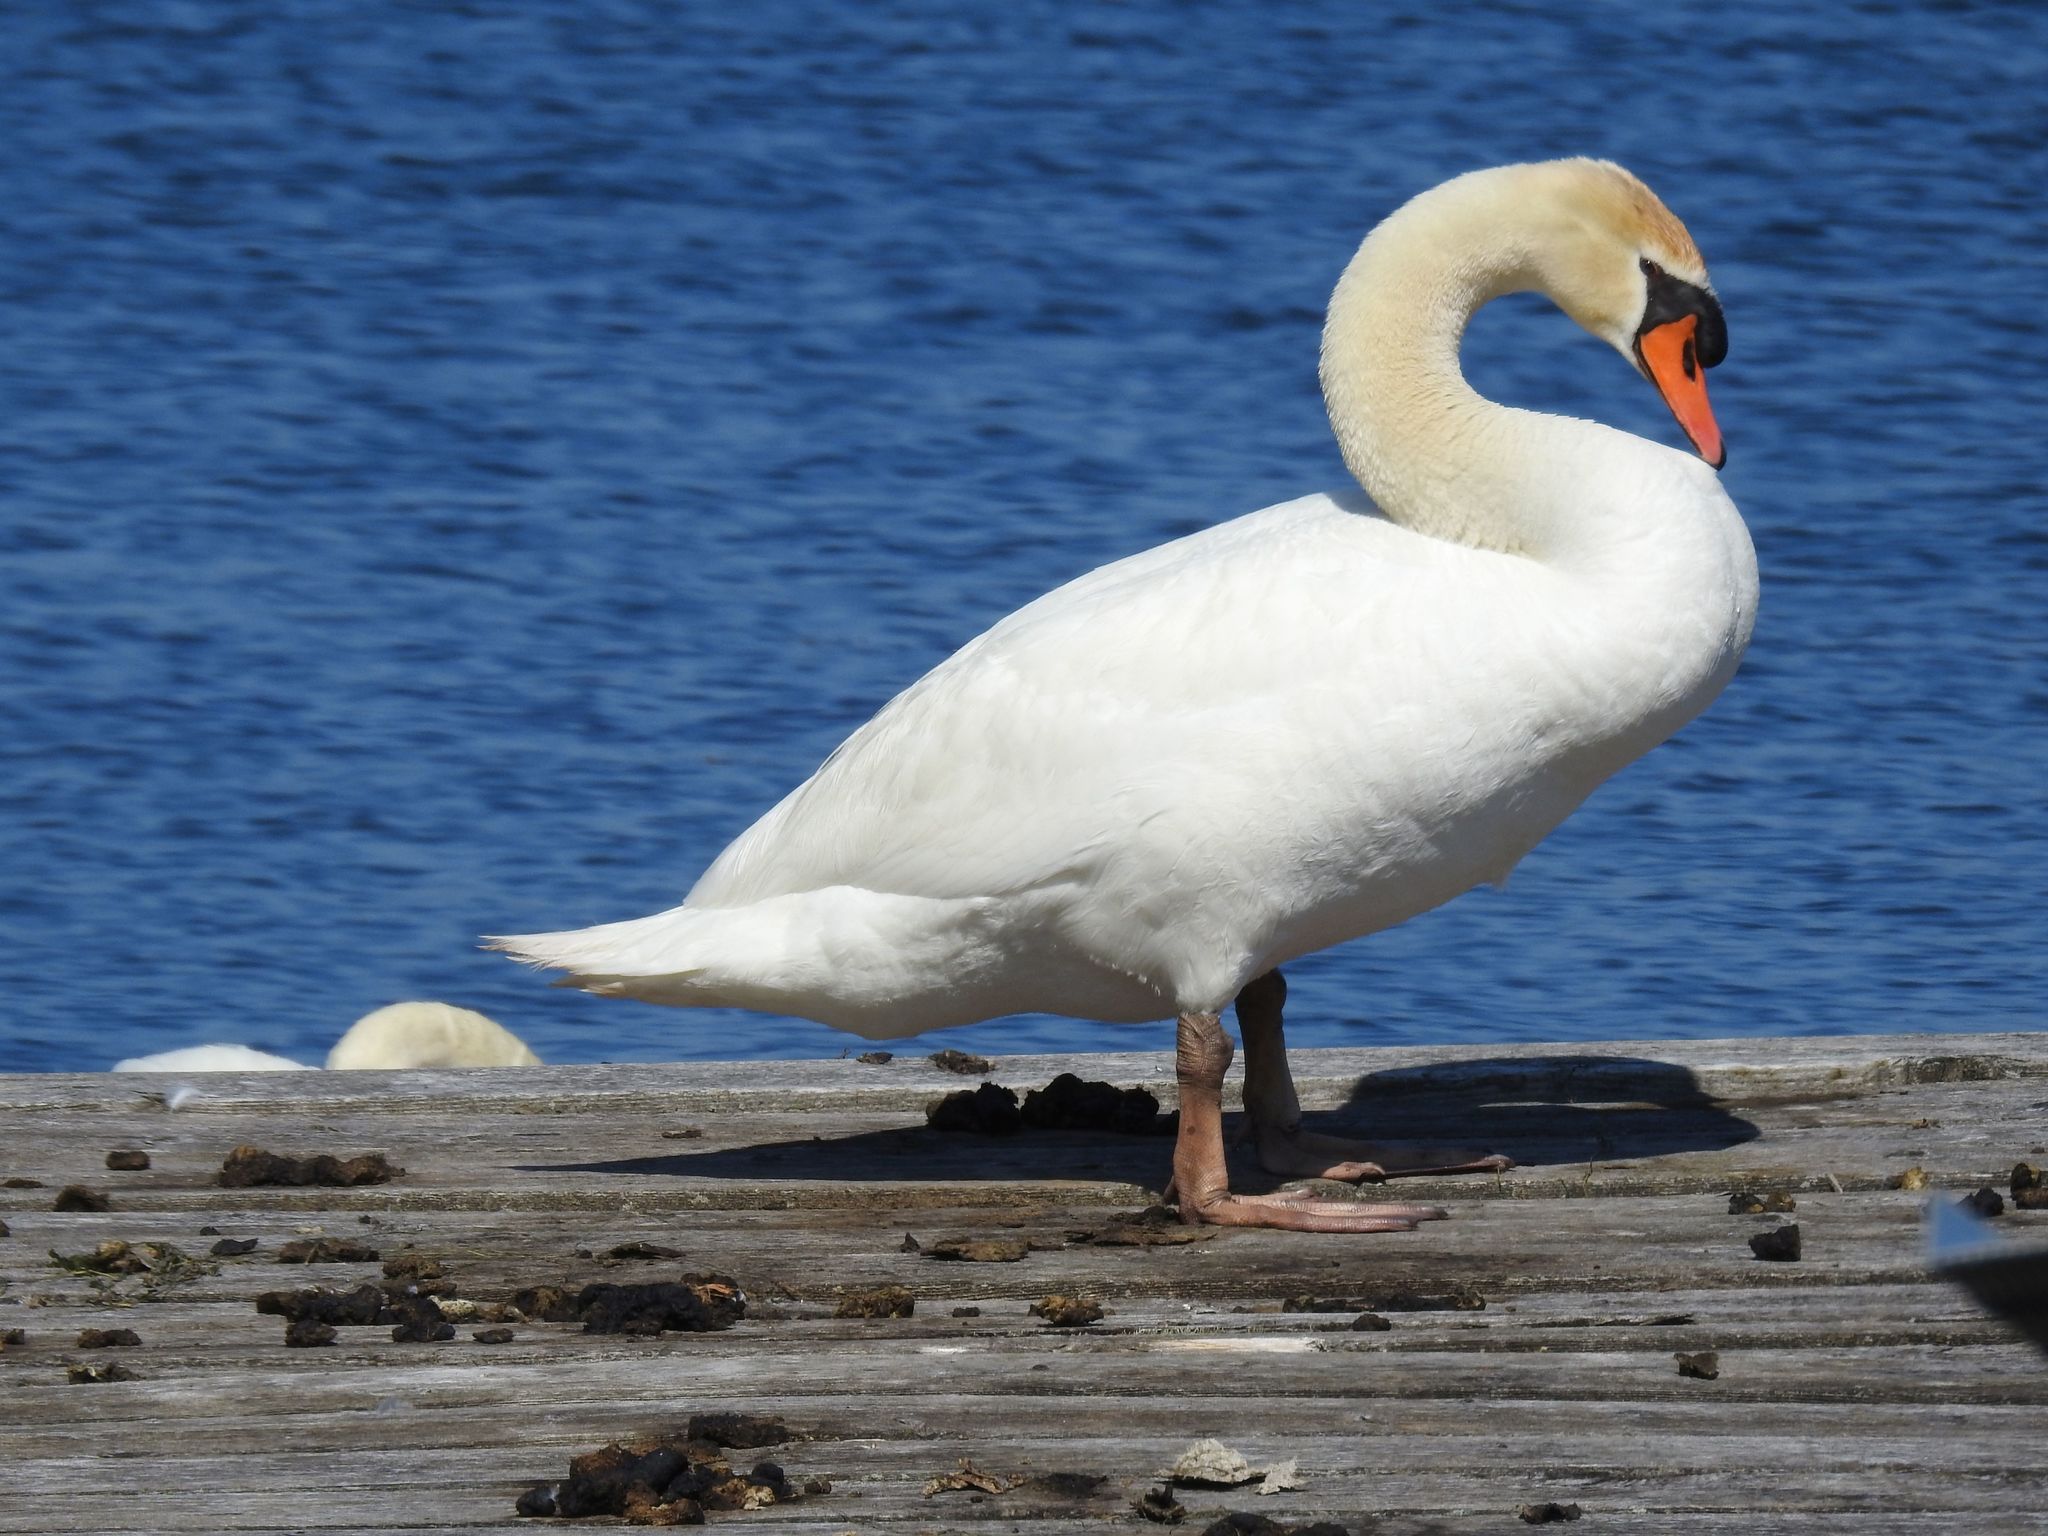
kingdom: Animalia
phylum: Chordata
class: Aves
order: Anseriformes
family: Anatidae
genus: Cygnus
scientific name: Cygnus olor
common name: Mute swan
